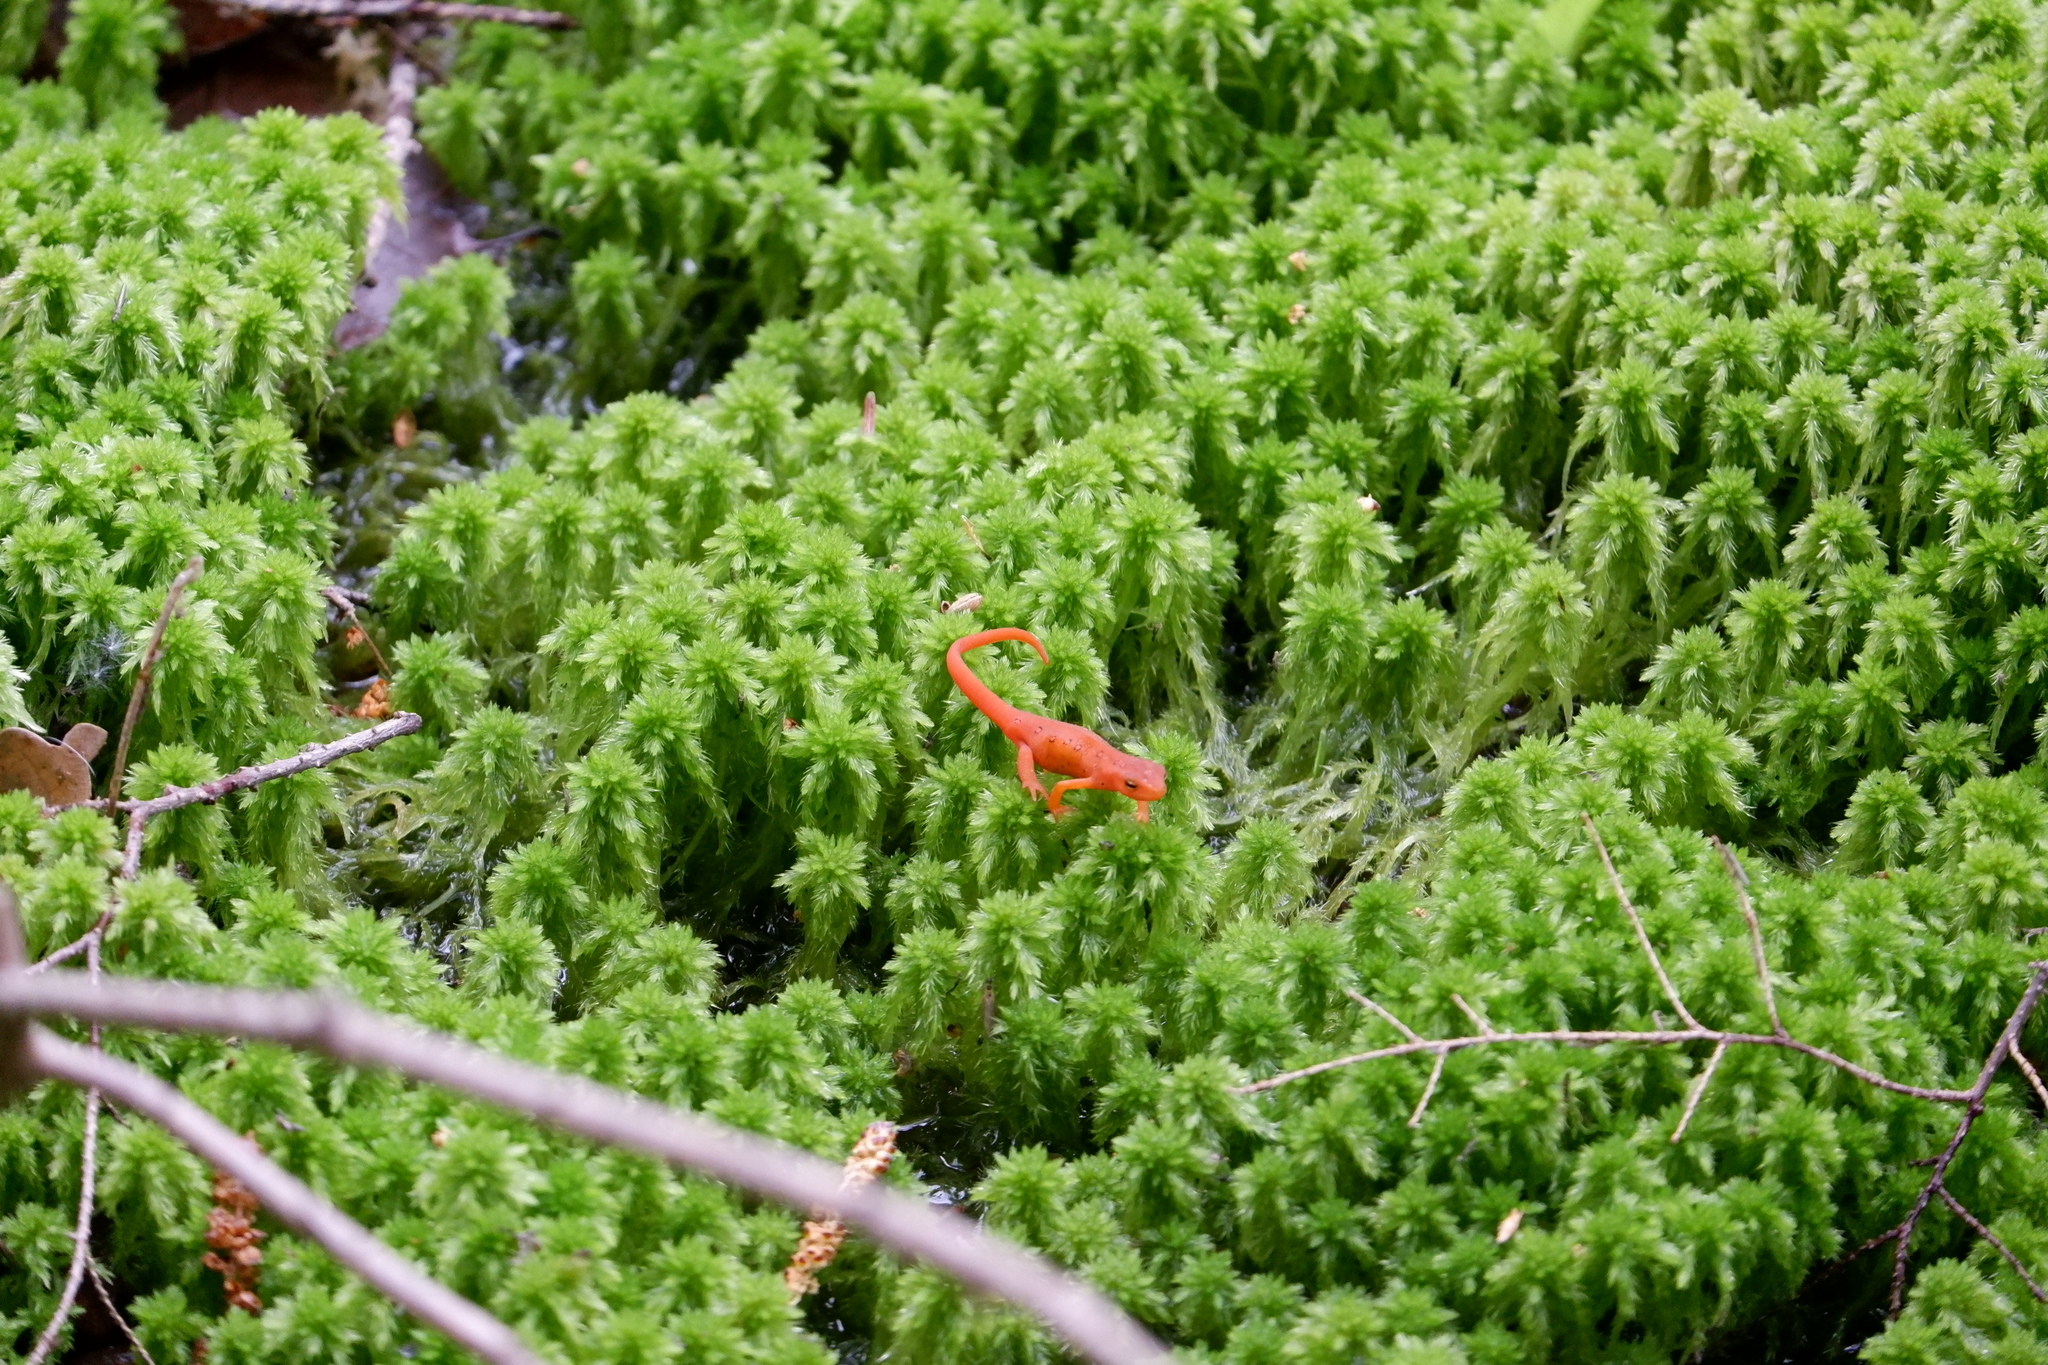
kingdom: Animalia
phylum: Chordata
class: Amphibia
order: Caudata
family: Salamandridae
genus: Notophthalmus
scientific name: Notophthalmus viridescens
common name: Eastern newt
